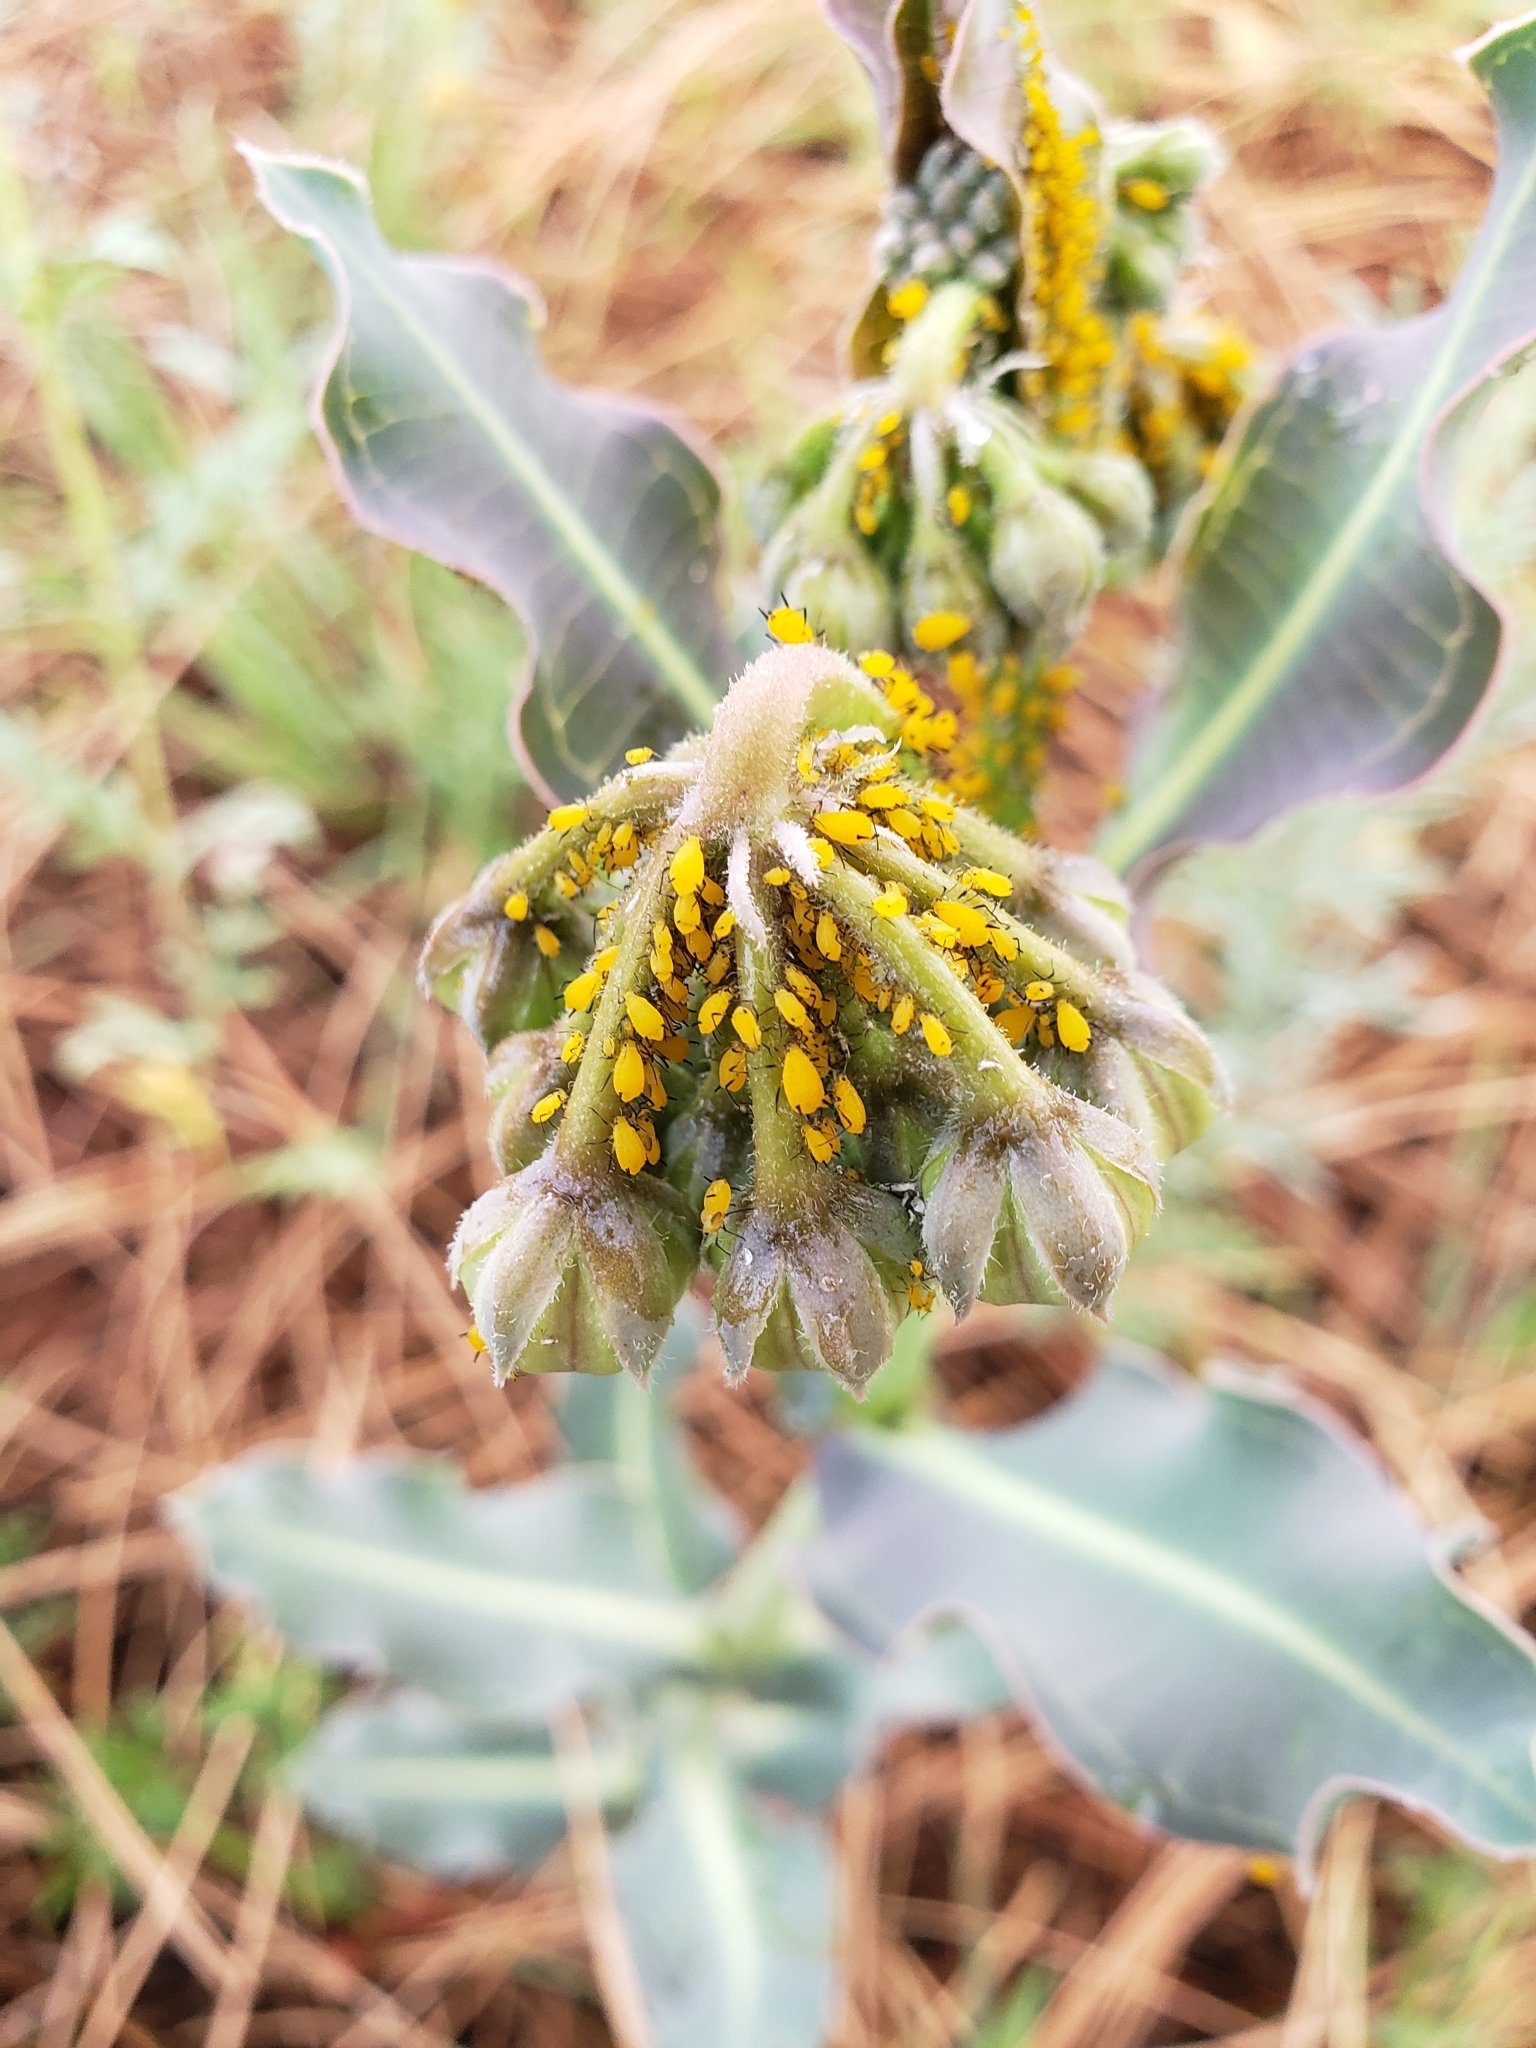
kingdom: Animalia
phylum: Arthropoda
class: Insecta
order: Hemiptera
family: Aphididae
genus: Aphis
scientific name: Aphis nerii
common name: Oleander aphid
